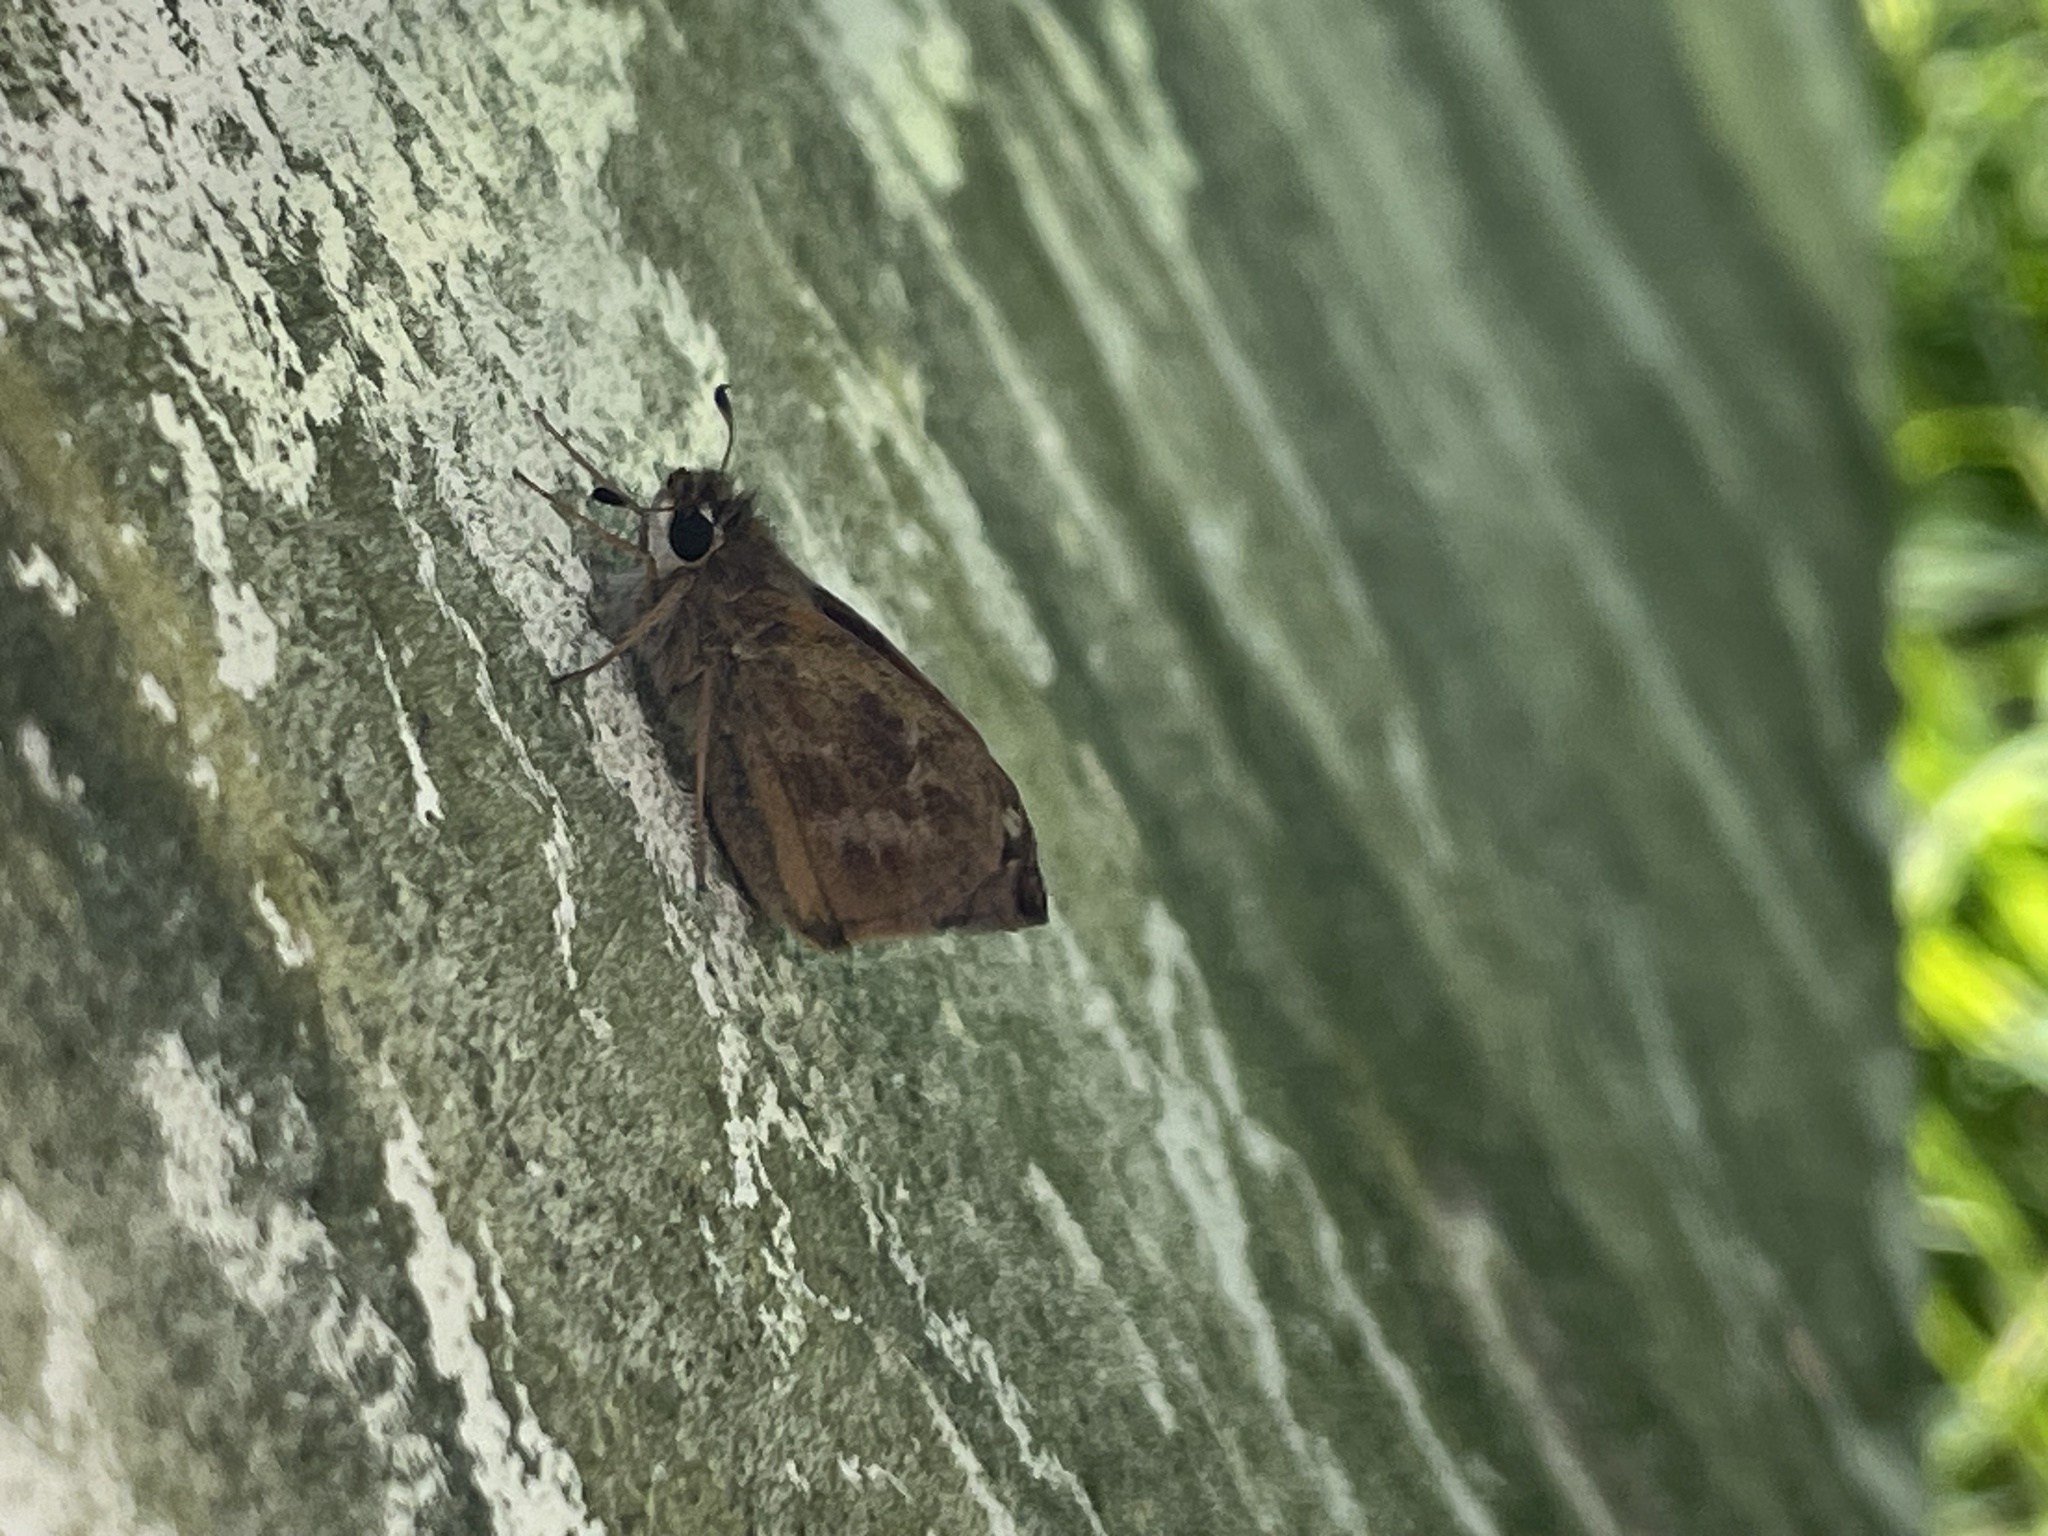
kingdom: Animalia
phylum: Arthropoda
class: Insecta
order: Lepidoptera
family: Hesperiidae
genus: Atalopedes
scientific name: Atalopedes
